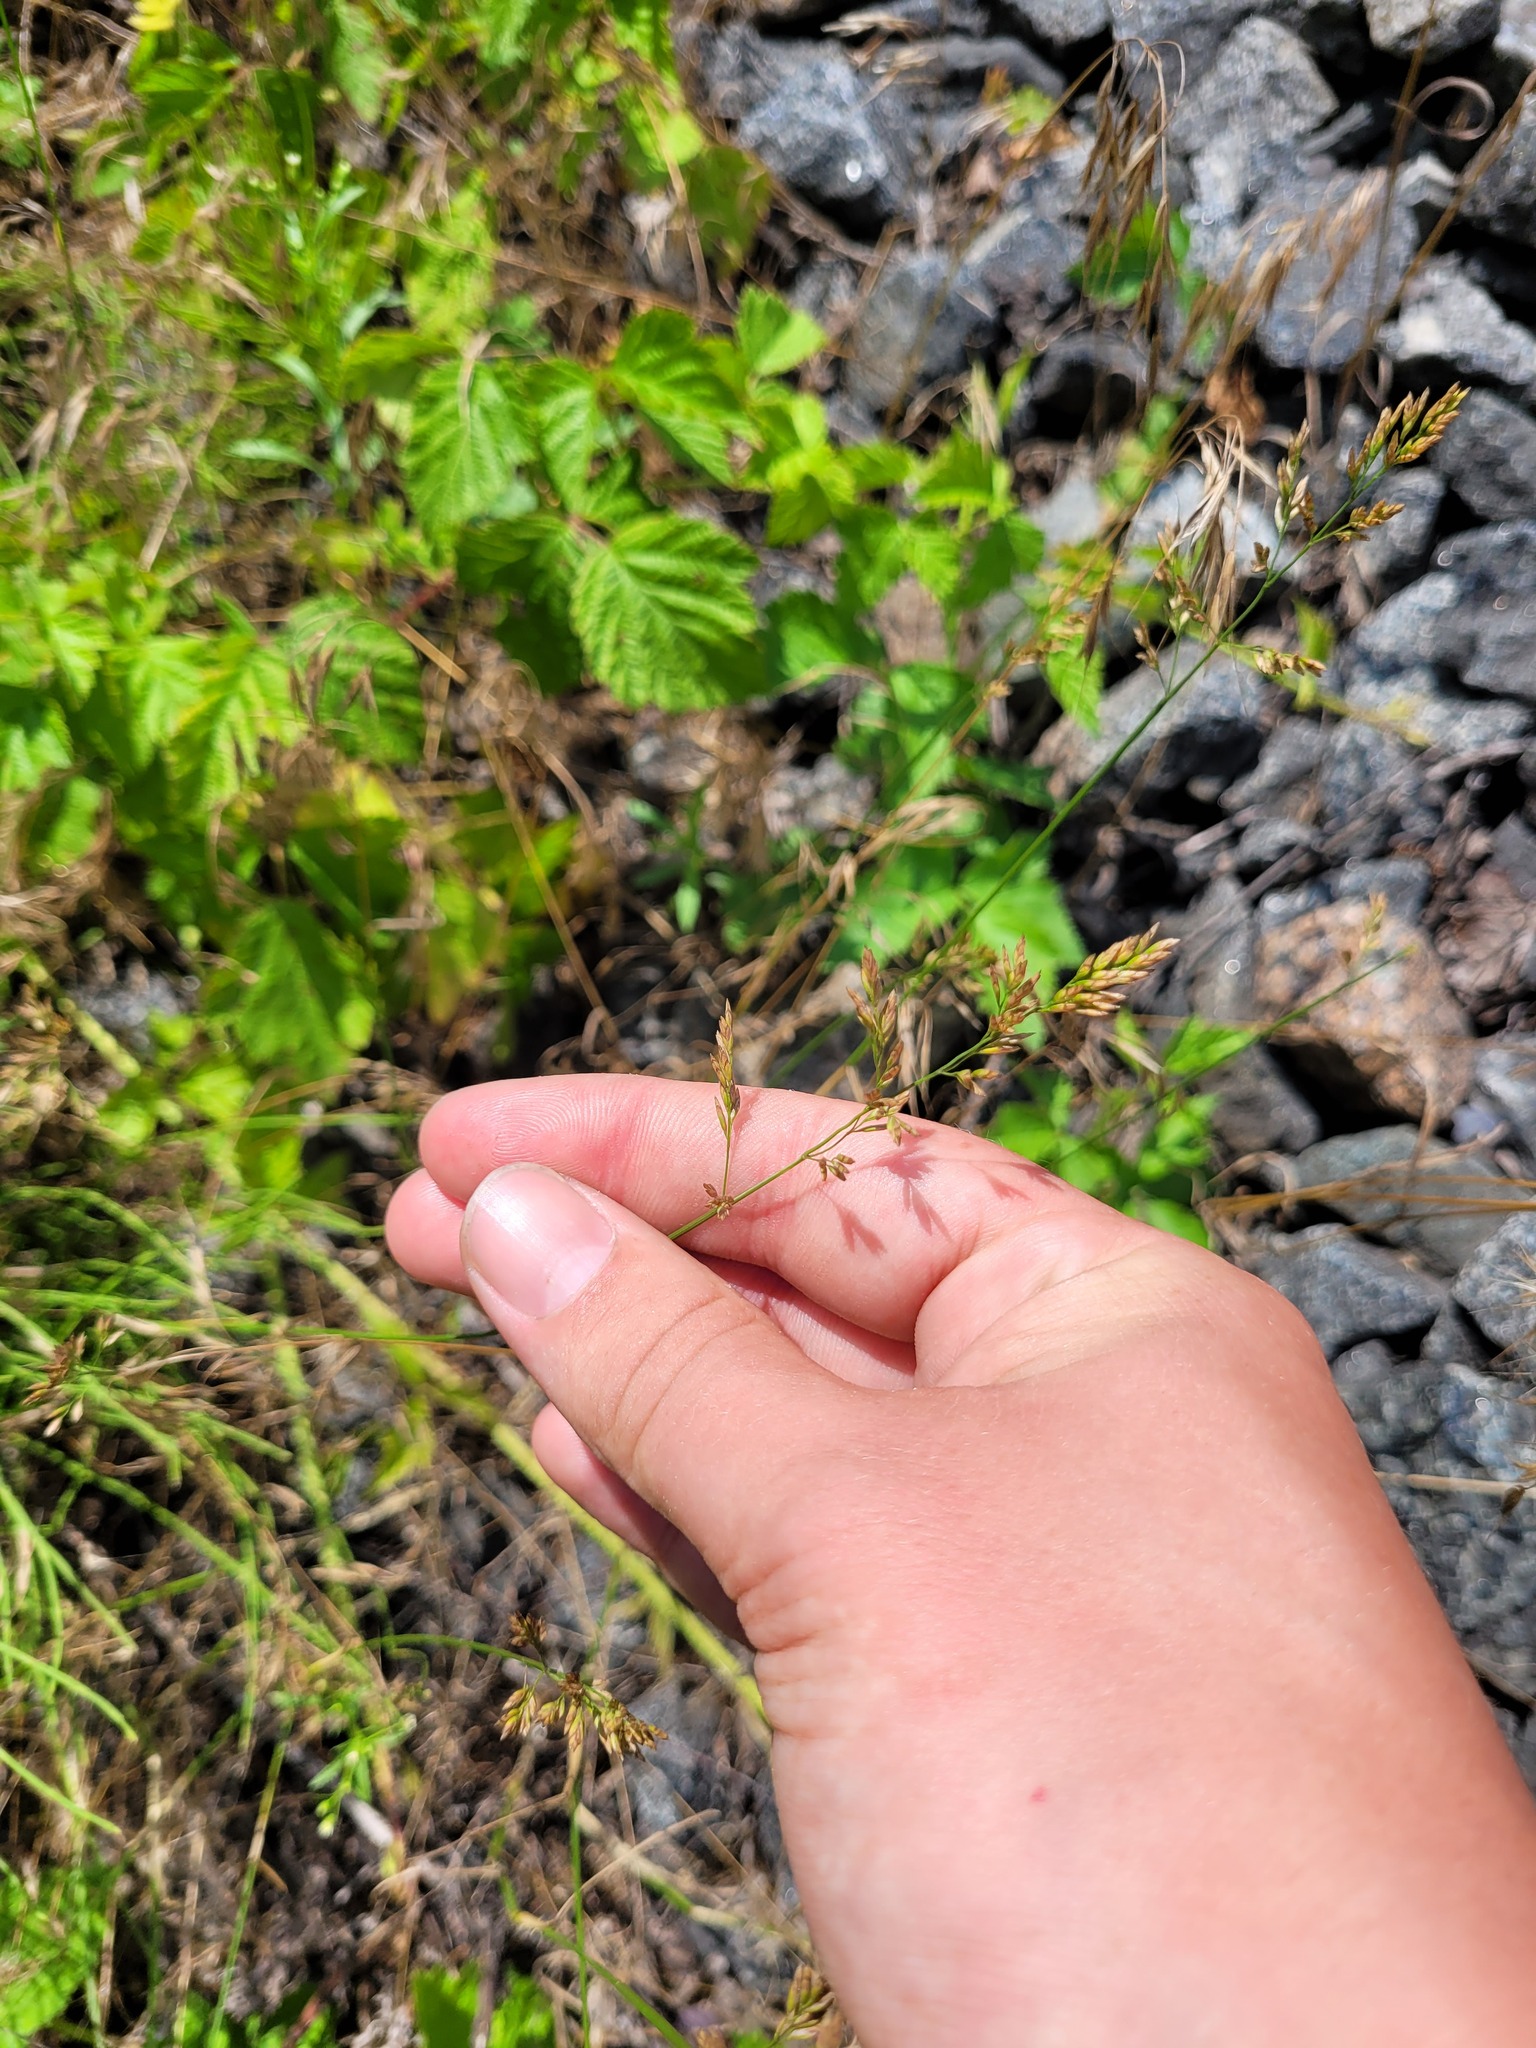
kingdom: Plantae
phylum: Tracheophyta
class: Liliopsida
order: Poales
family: Poaceae
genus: Poa
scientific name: Poa compressa
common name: Canada bluegrass
